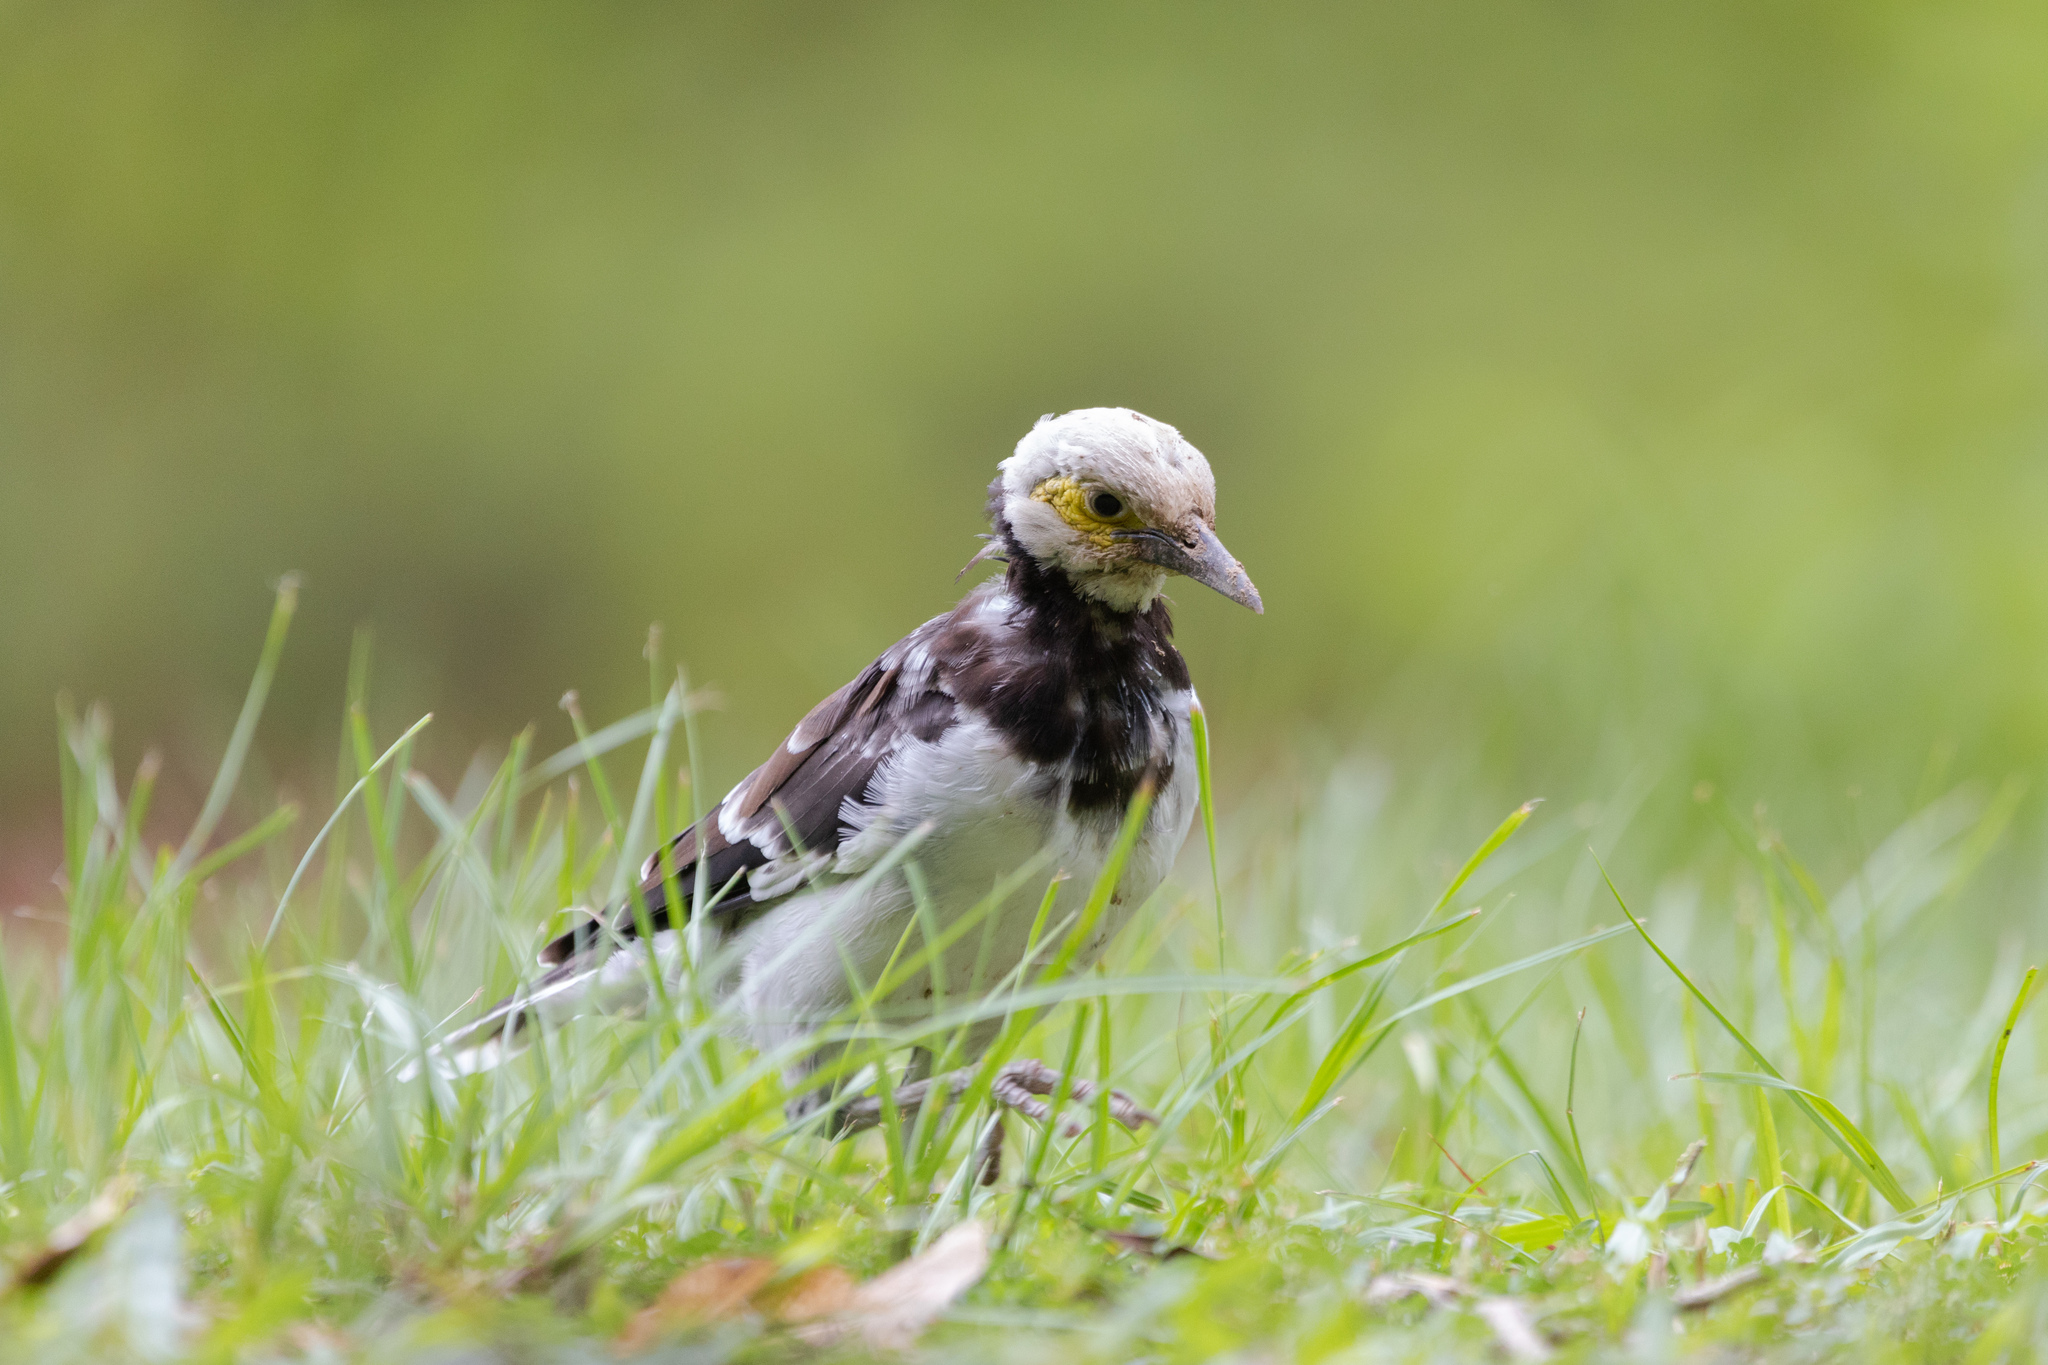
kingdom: Animalia
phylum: Chordata
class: Aves
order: Passeriformes
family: Sturnidae
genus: Gracupica
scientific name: Gracupica nigricollis
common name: Black-collared starling
